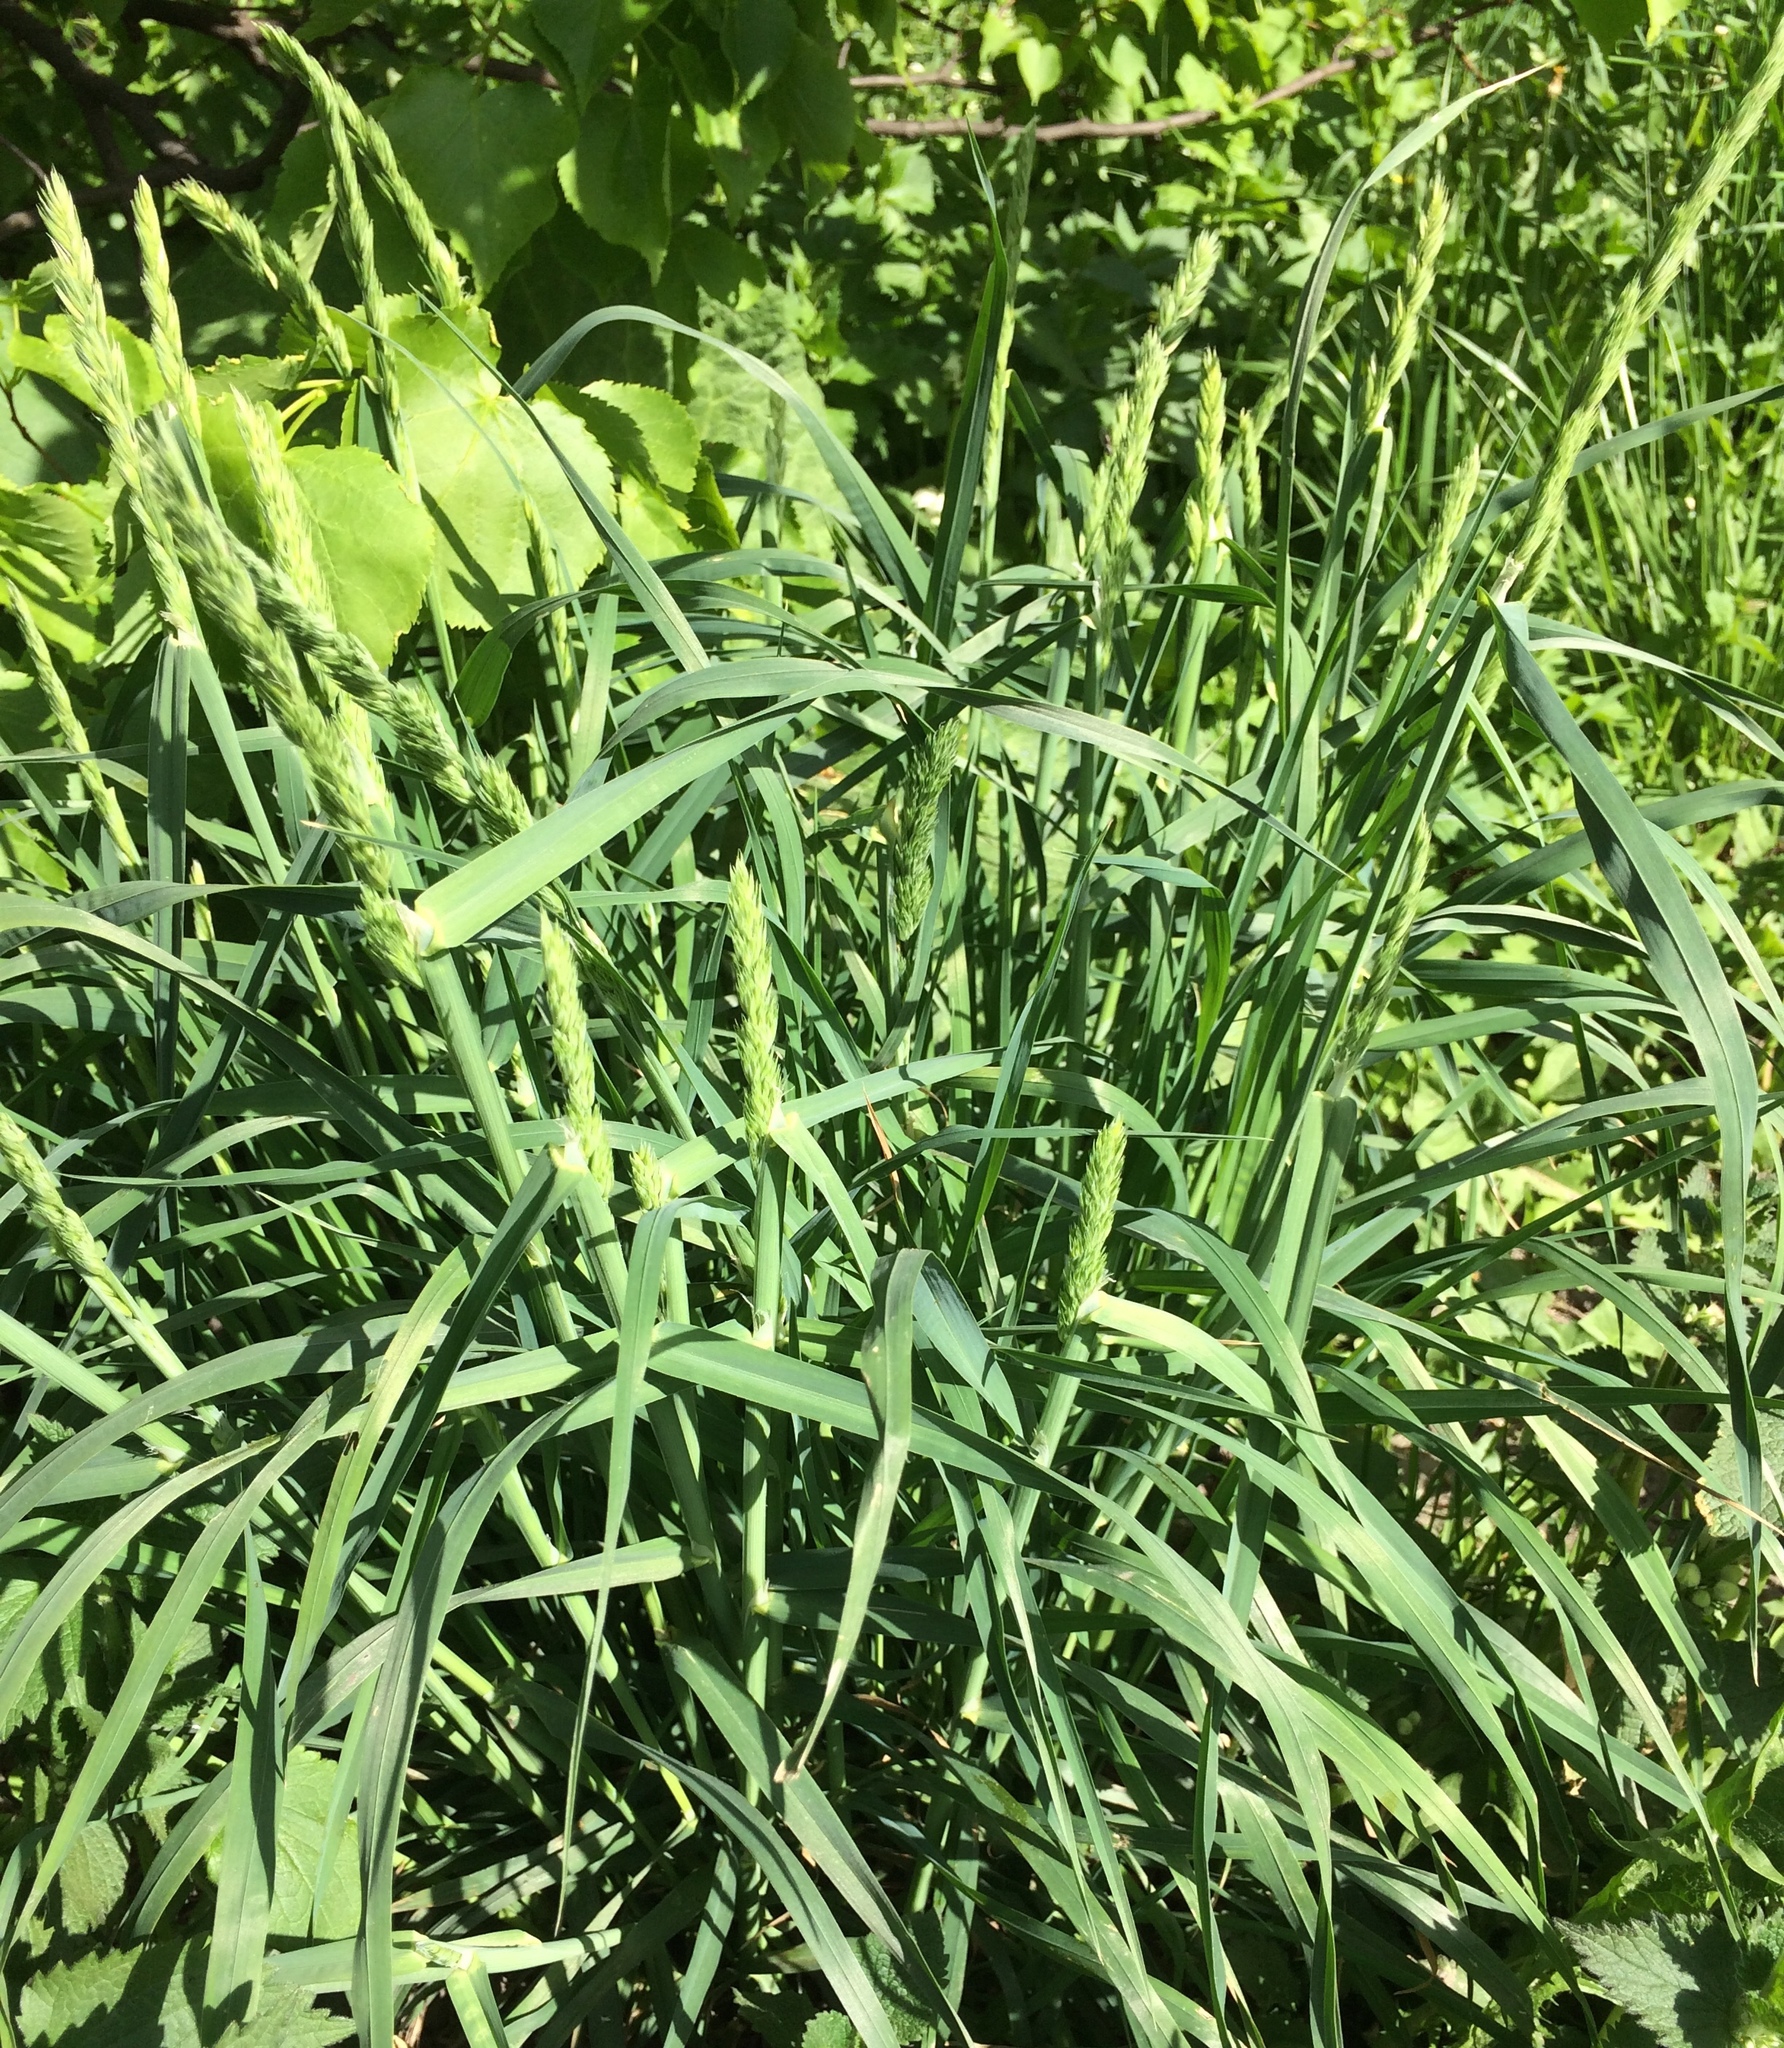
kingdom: Plantae
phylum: Tracheophyta
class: Liliopsida
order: Poales
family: Poaceae
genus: Dactylis
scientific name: Dactylis glomerata
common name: Orchardgrass
